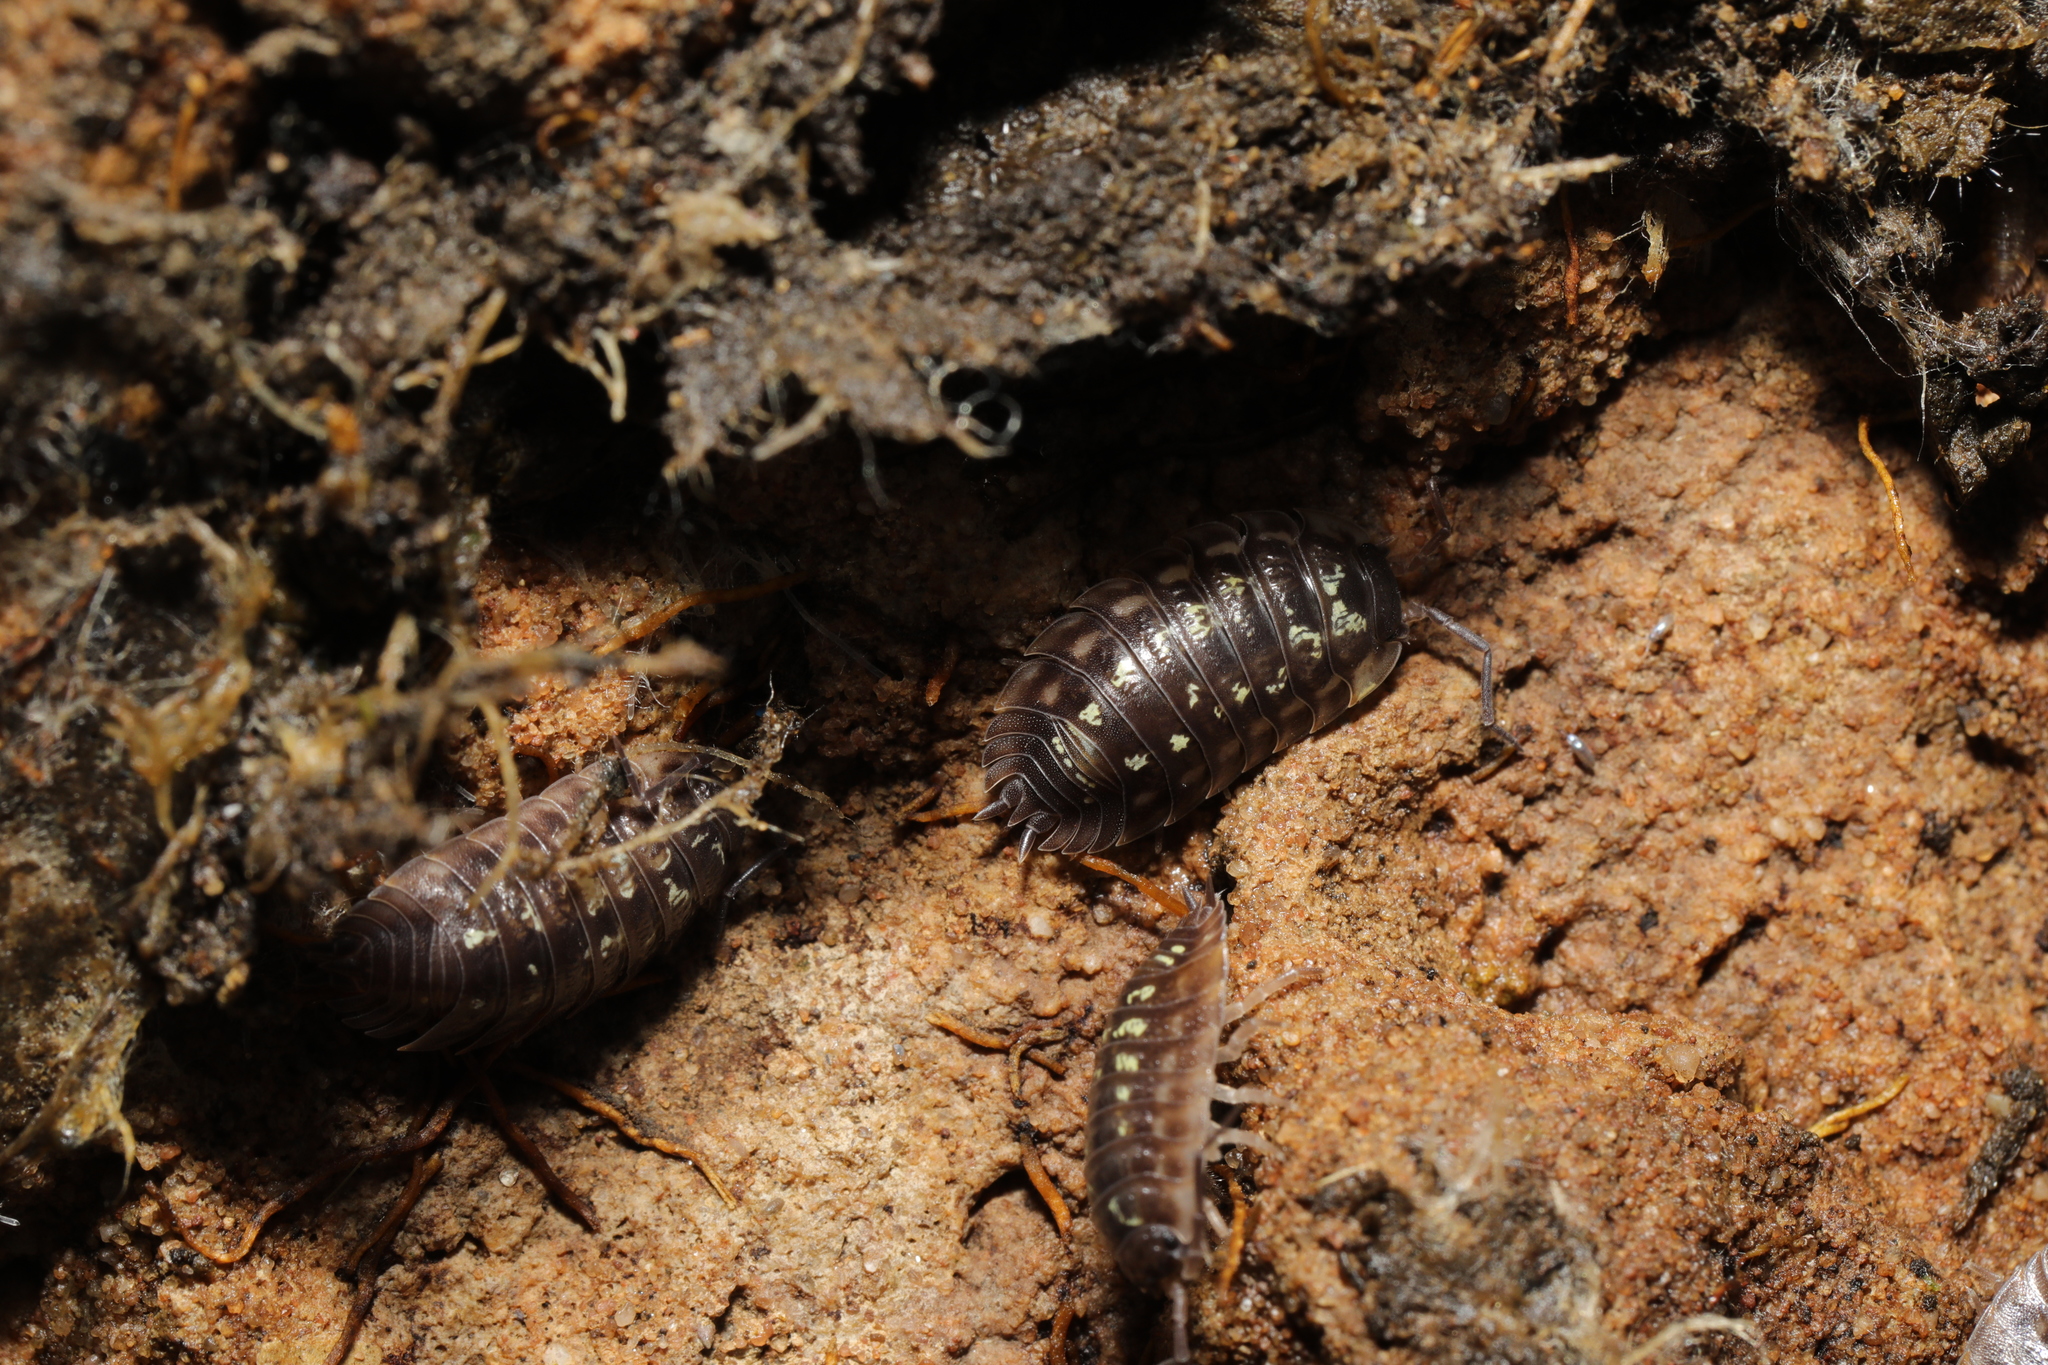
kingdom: Animalia
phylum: Arthropoda
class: Malacostraca
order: Isopoda
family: Oniscidae
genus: Oniscus
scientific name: Oniscus asellus
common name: Common shiny woodlouse
